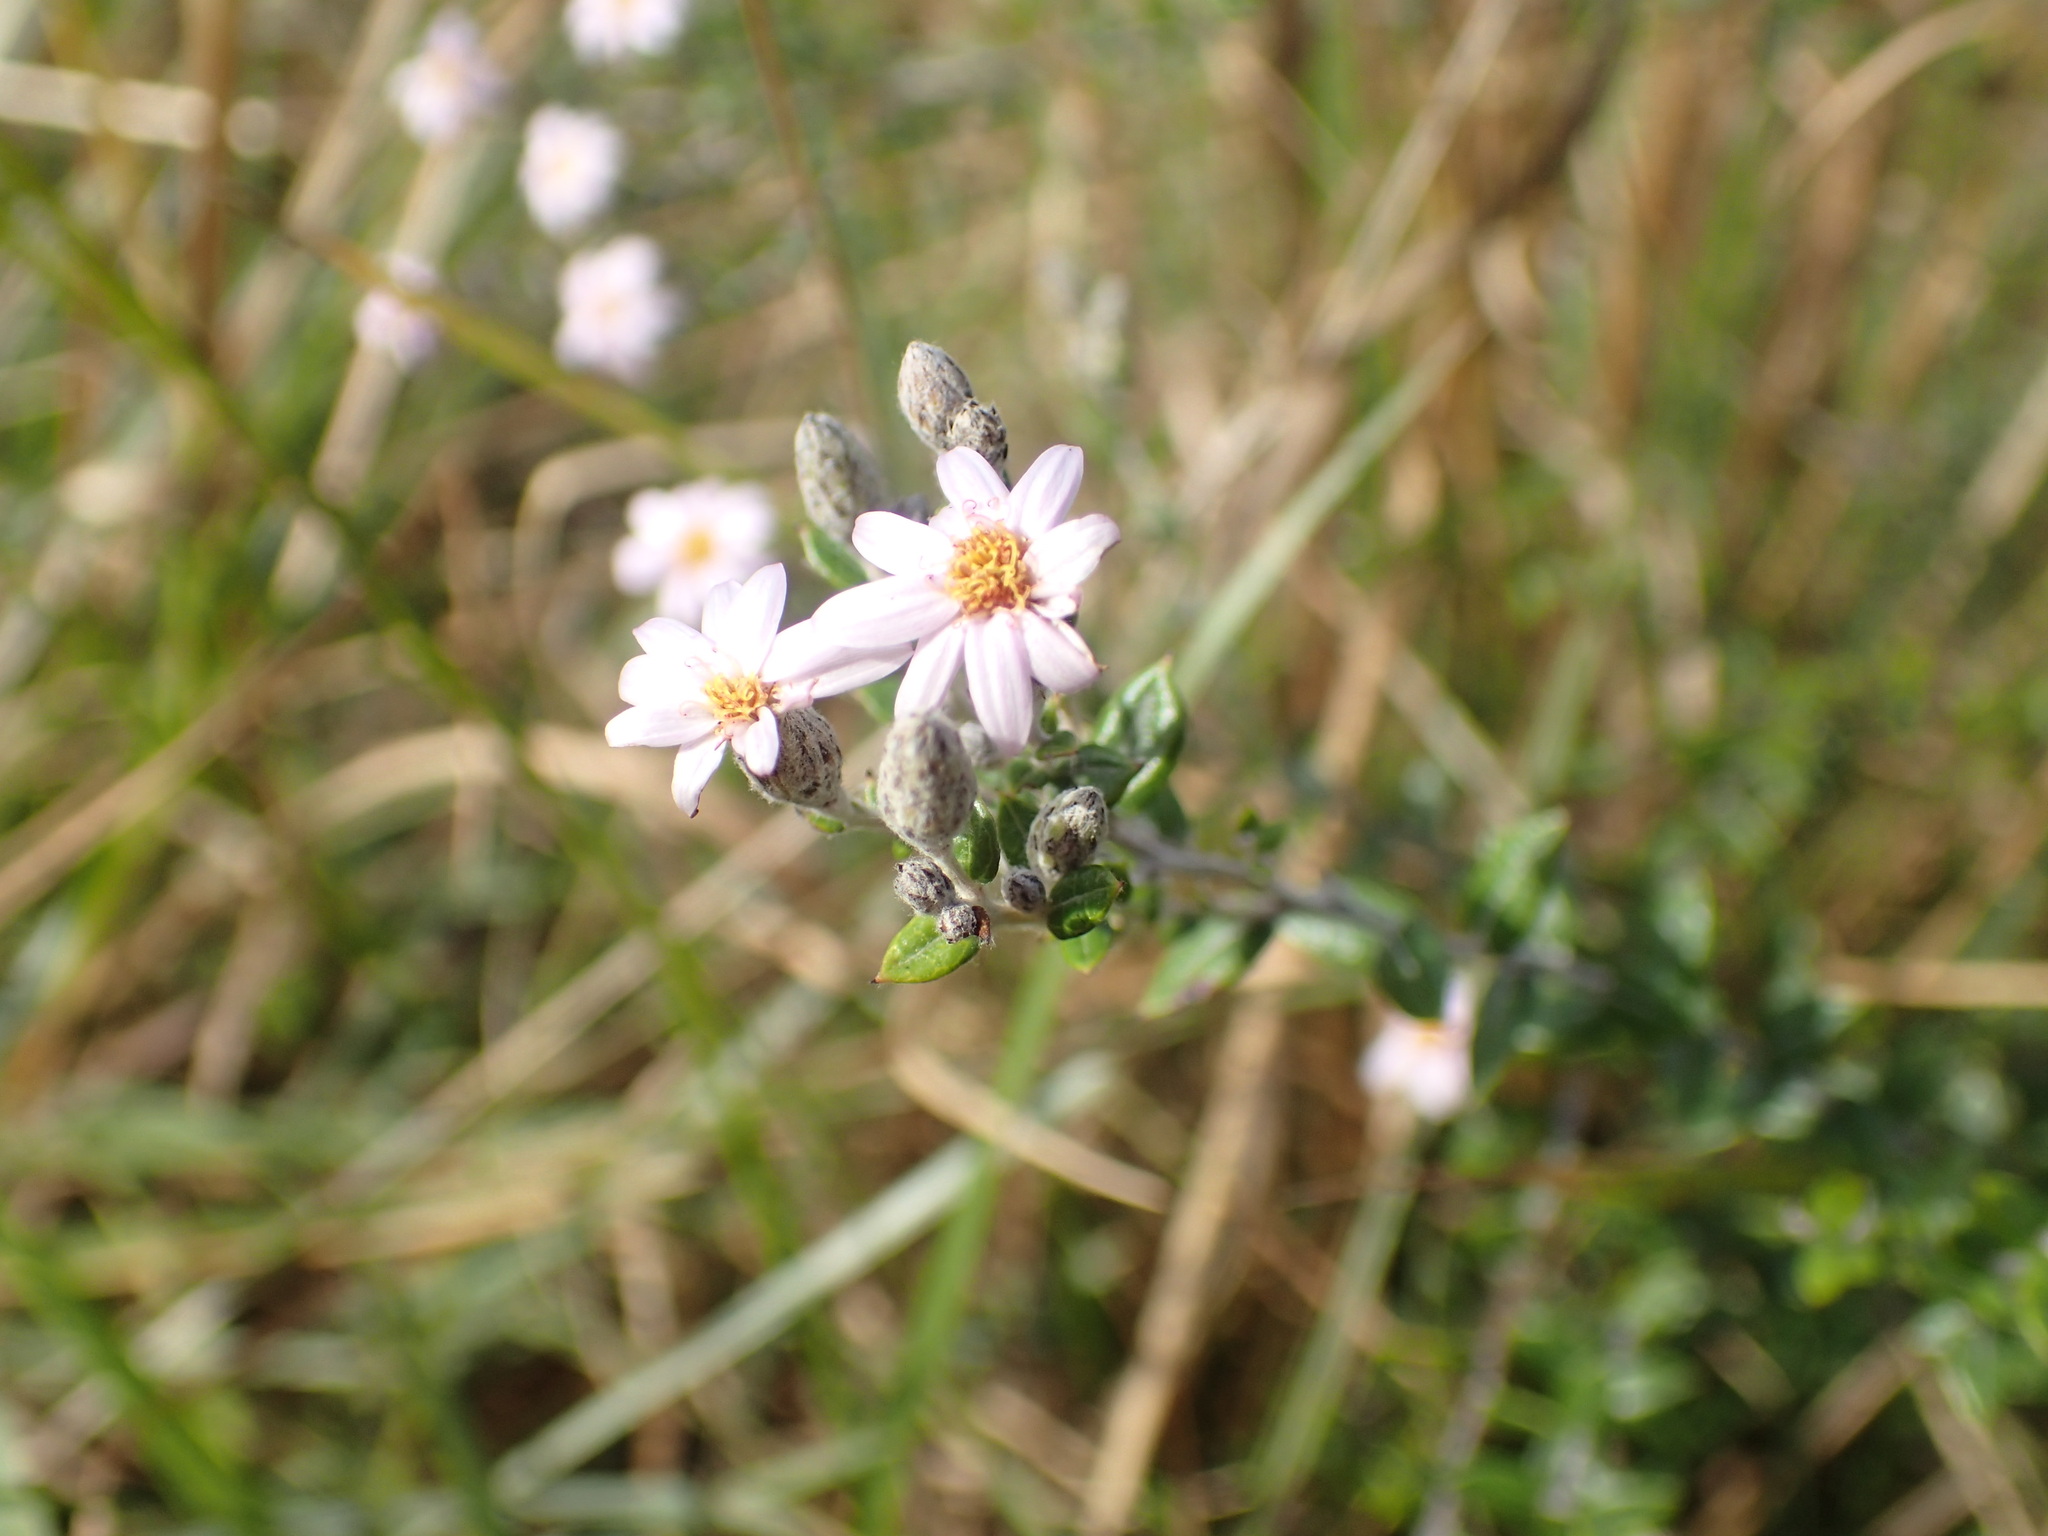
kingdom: Plantae
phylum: Tracheophyta
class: Magnoliopsida
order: Asterales
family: Asteraceae
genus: Athrixia
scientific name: Athrixia phylicoides
